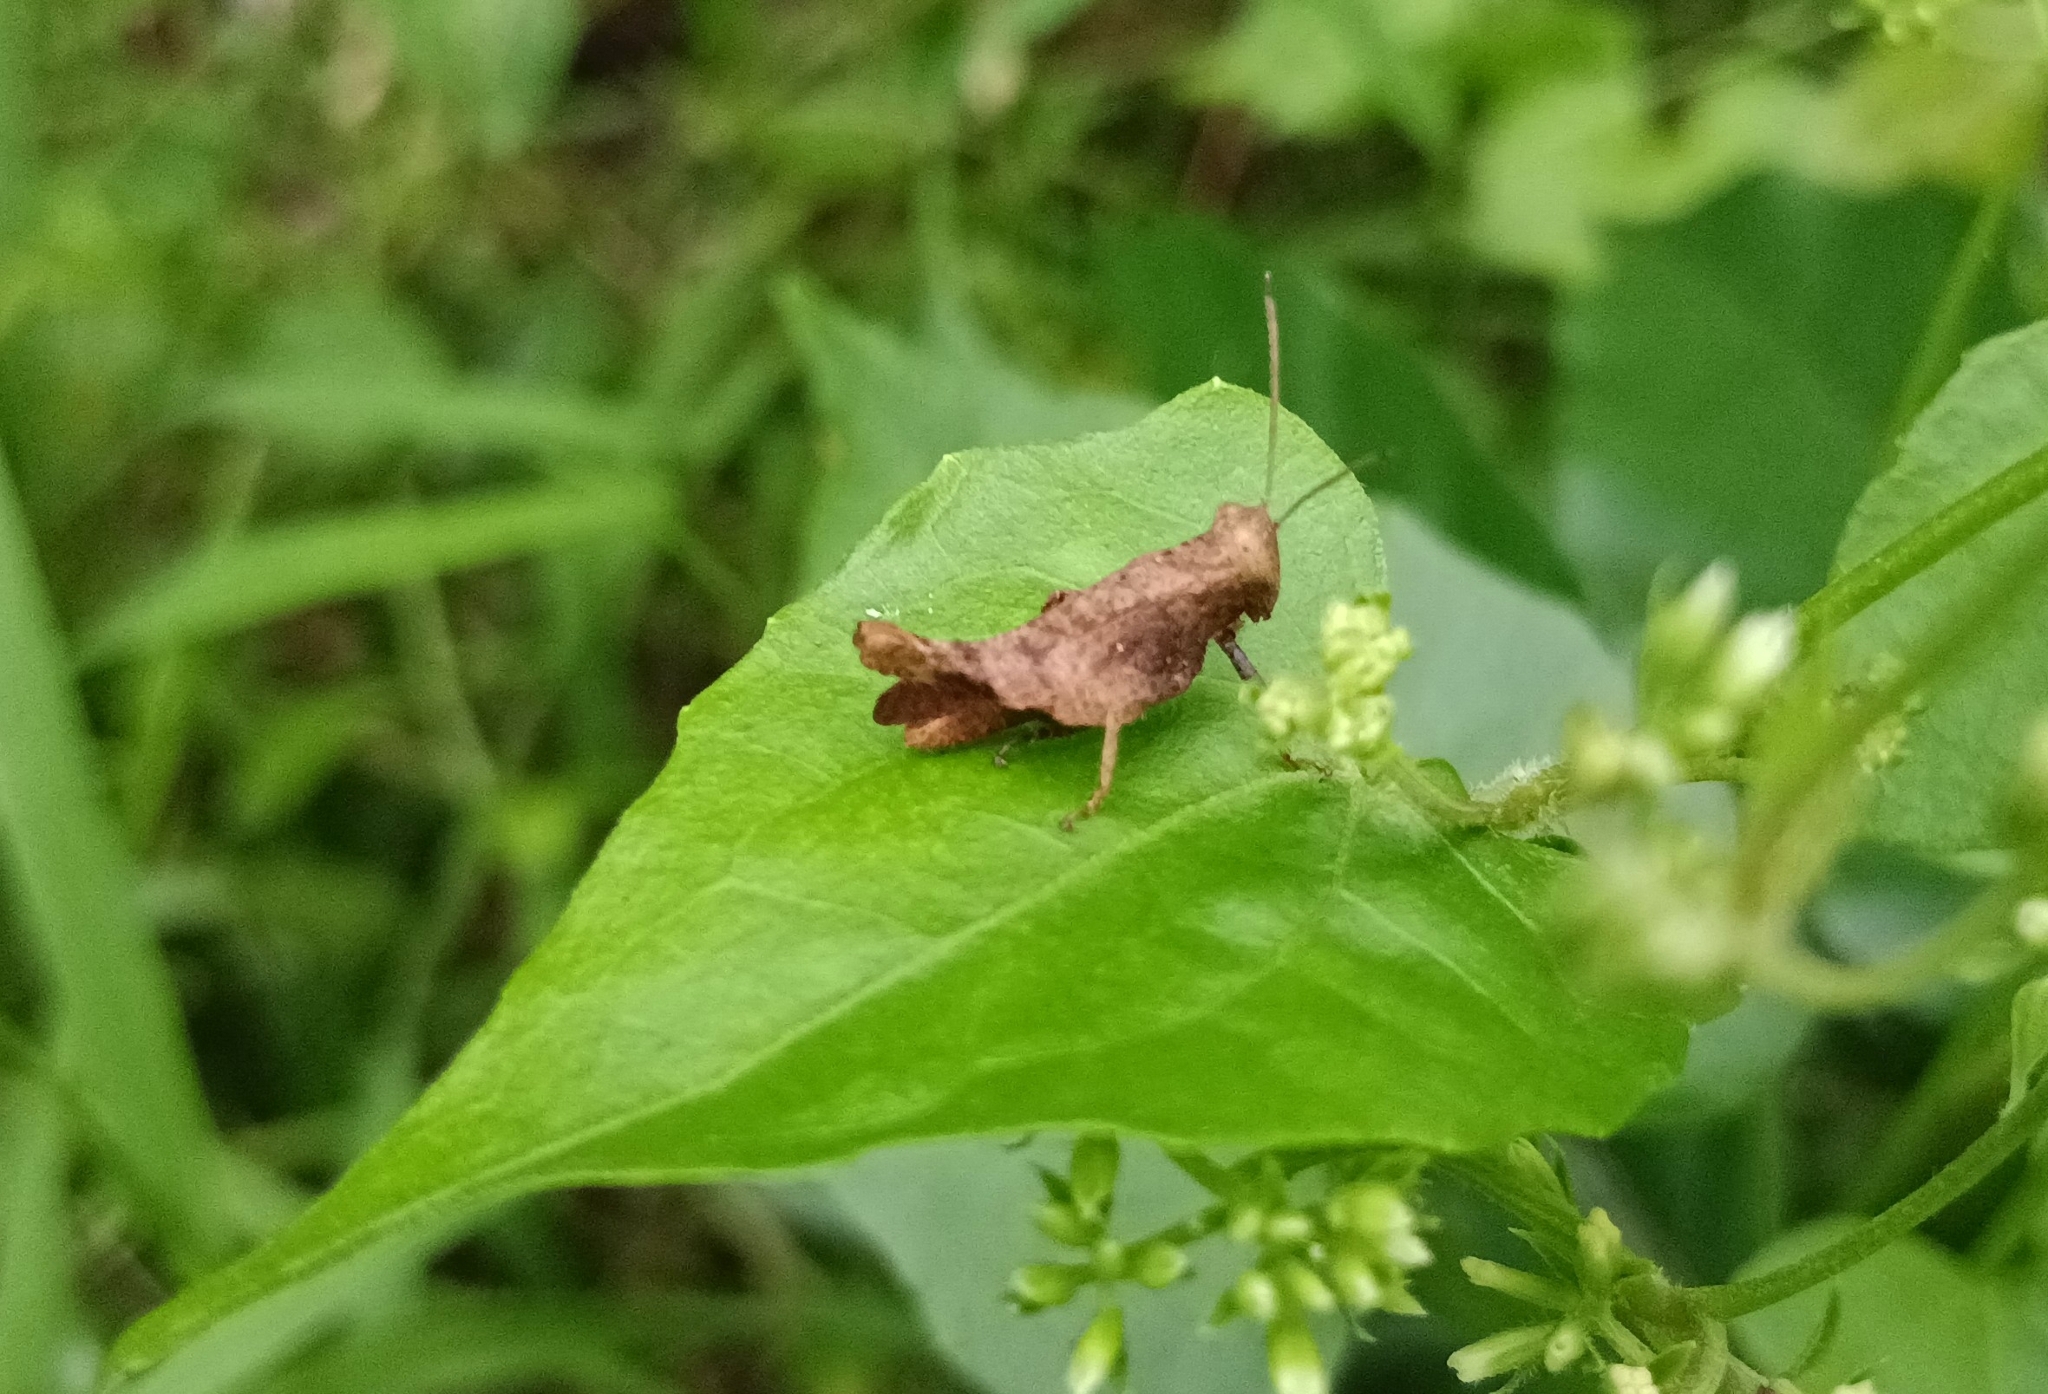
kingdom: Animalia
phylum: Arthropoda
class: Insecta
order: Orthoptera
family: Acrididae
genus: Epistaurus
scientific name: Epistaurus sinetyi
